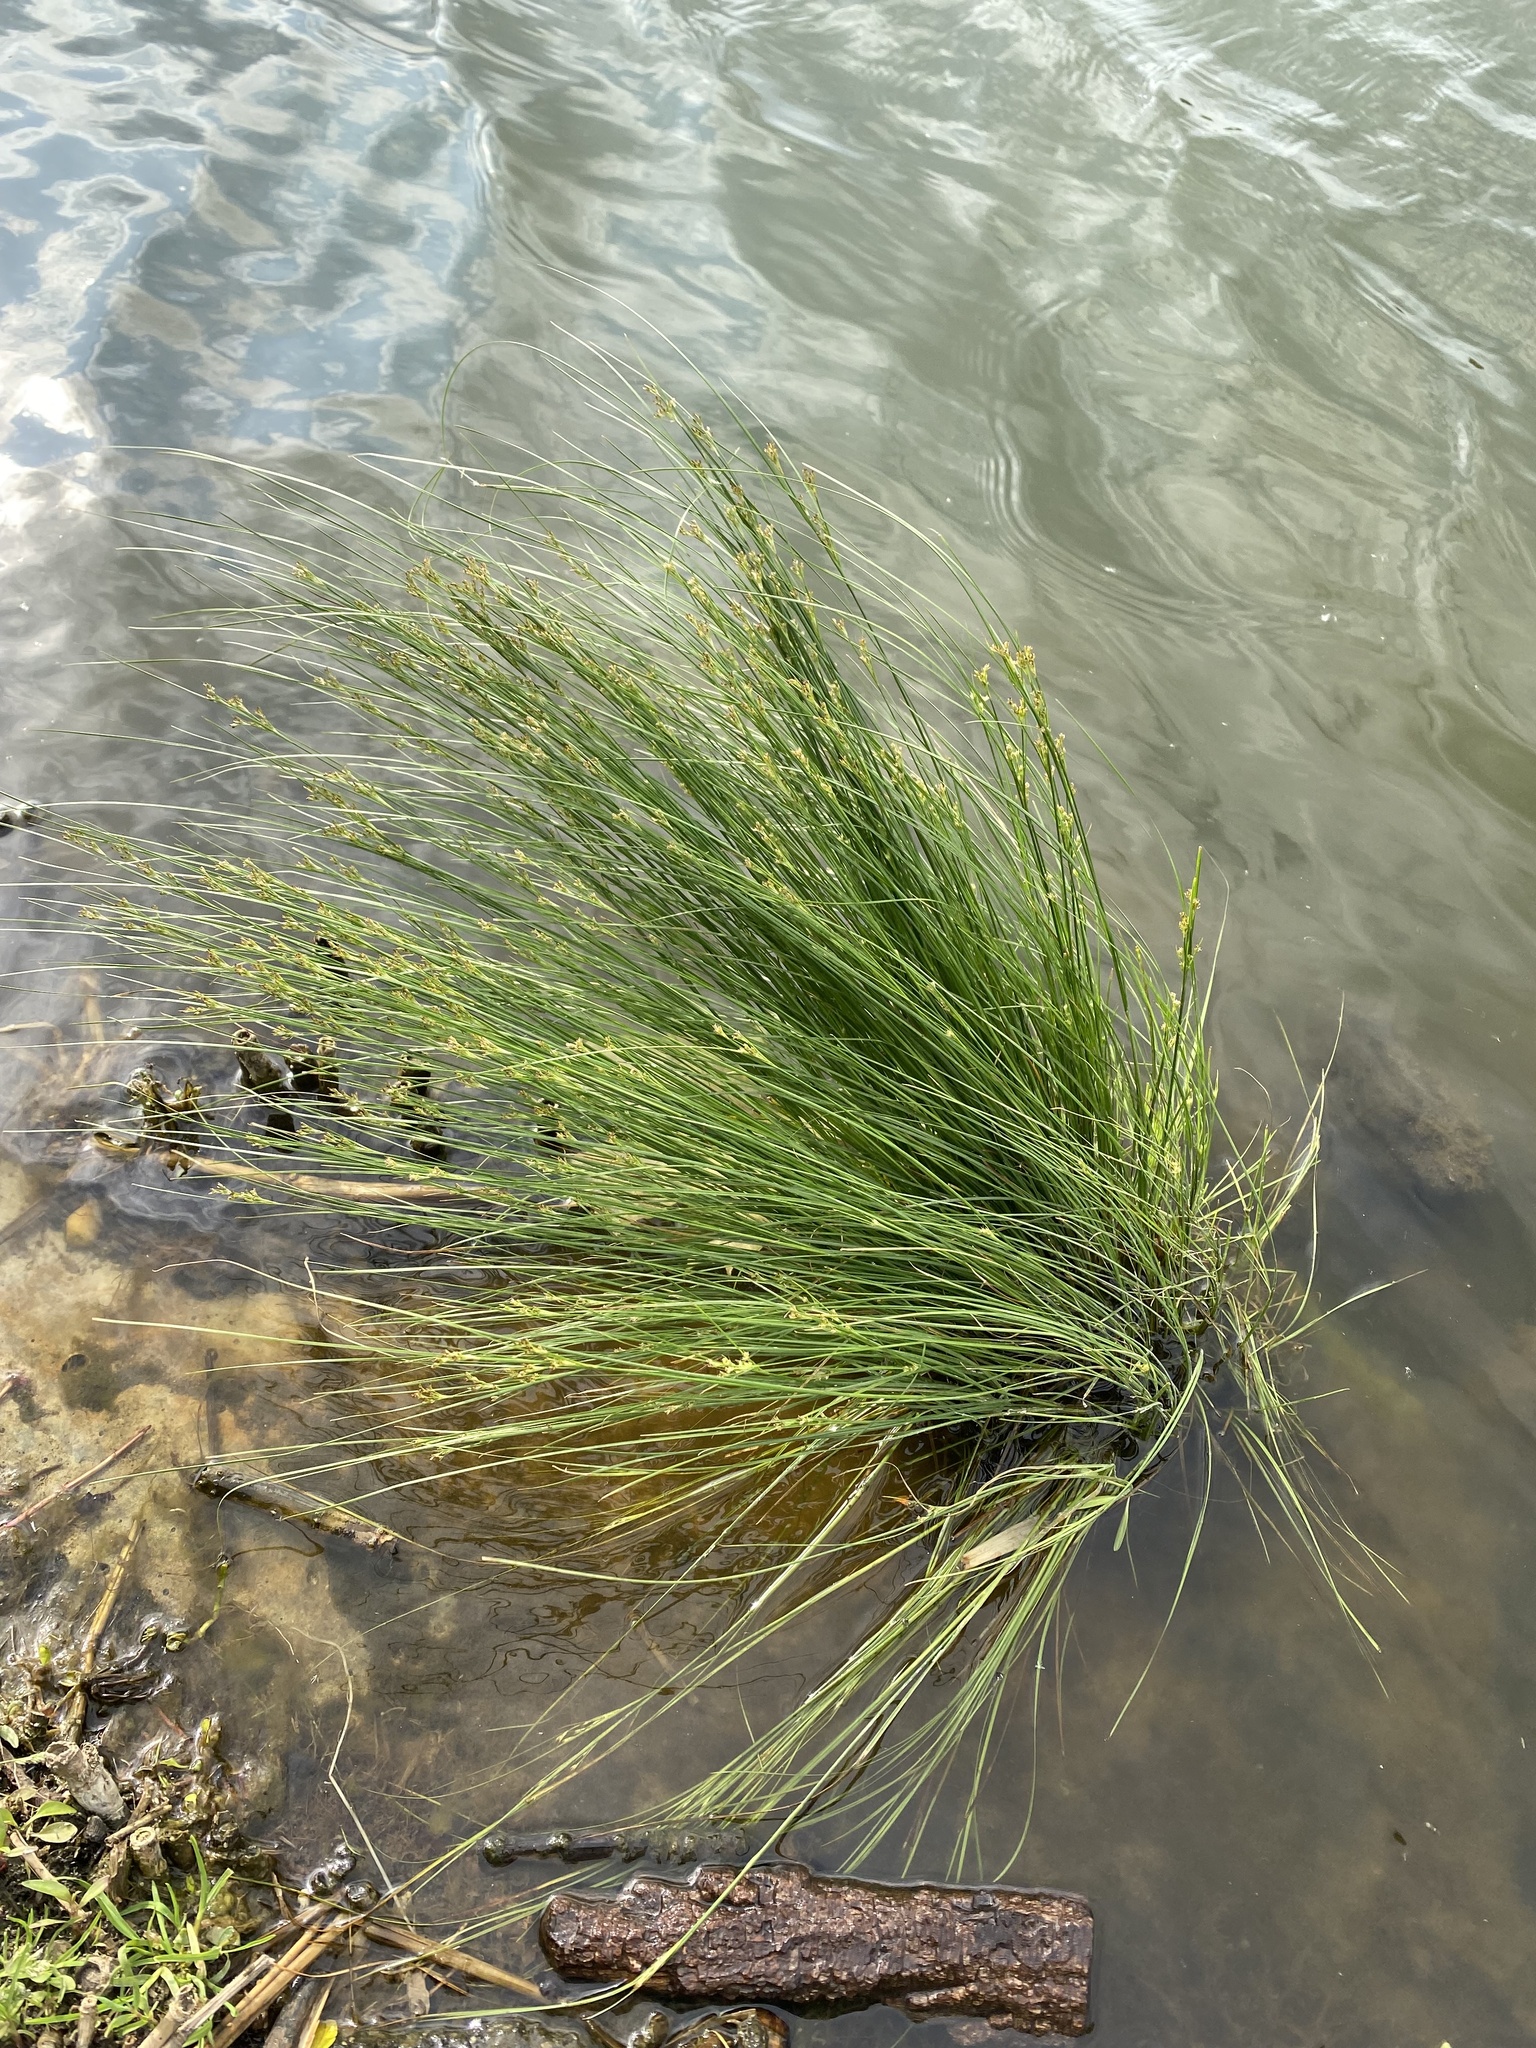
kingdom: Plantae
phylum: Tracheophyta
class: Liliopsida
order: Poales
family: Juncaceae
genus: Juncus
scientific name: Juncus compressus
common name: Round-fruited rush
